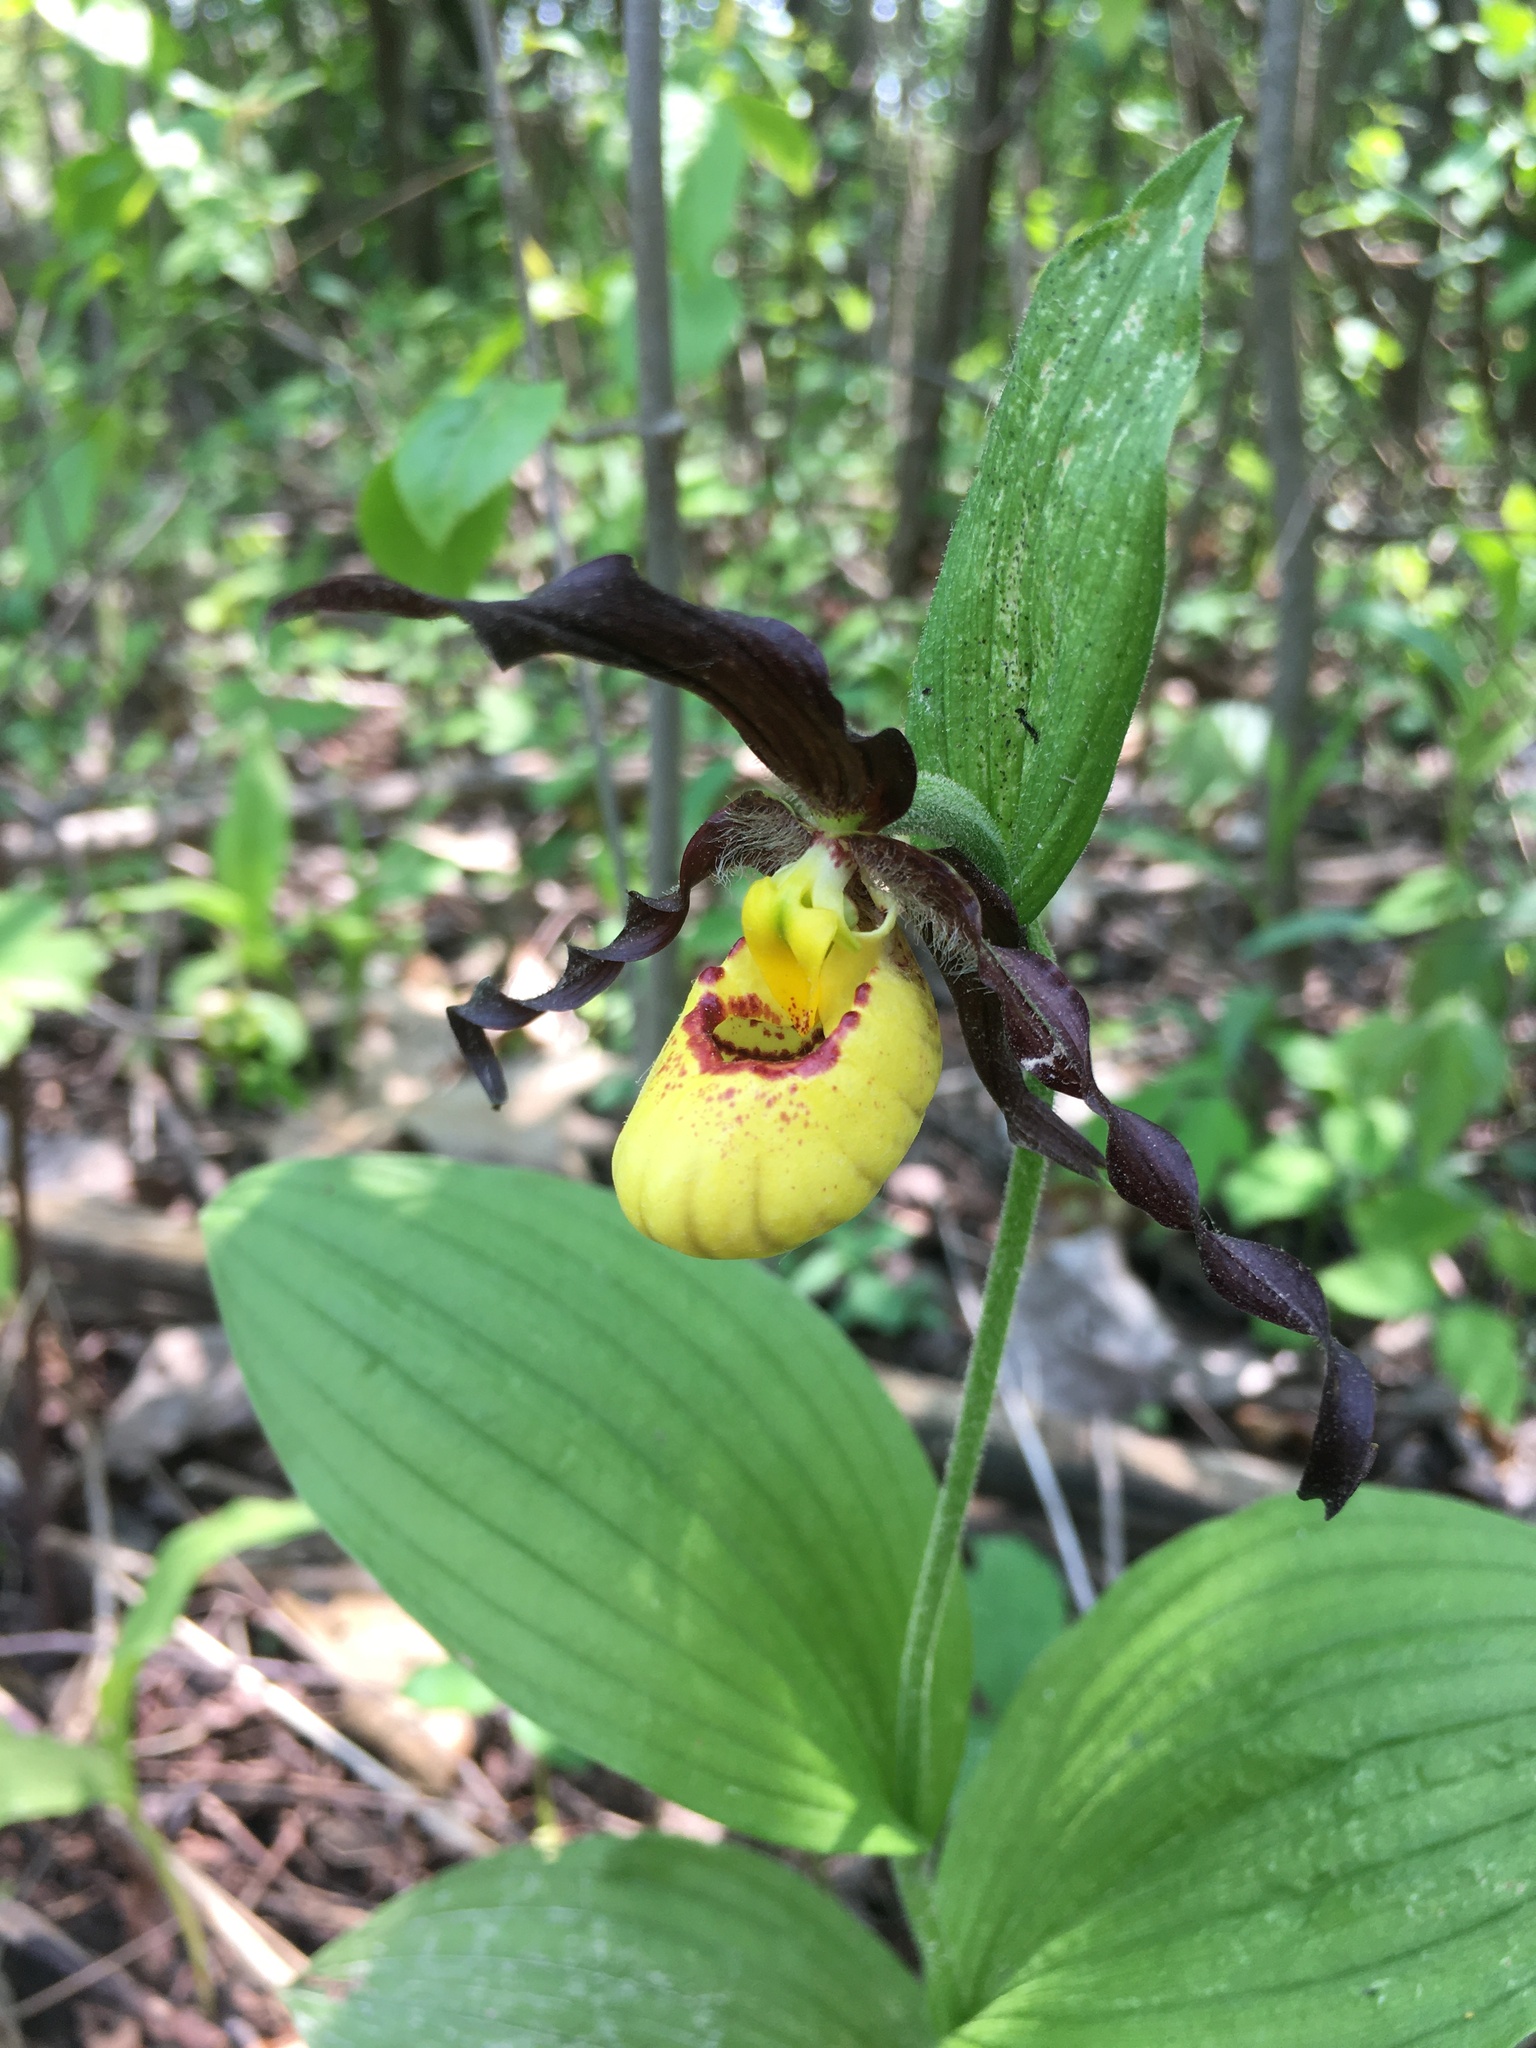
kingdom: Plantae
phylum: Tracheophyta
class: Liliopsida
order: Asparagales
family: Orchidaceae
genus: Cypripedium
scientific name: Cypripedium parviflorum
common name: American yellow lady's-slipper
